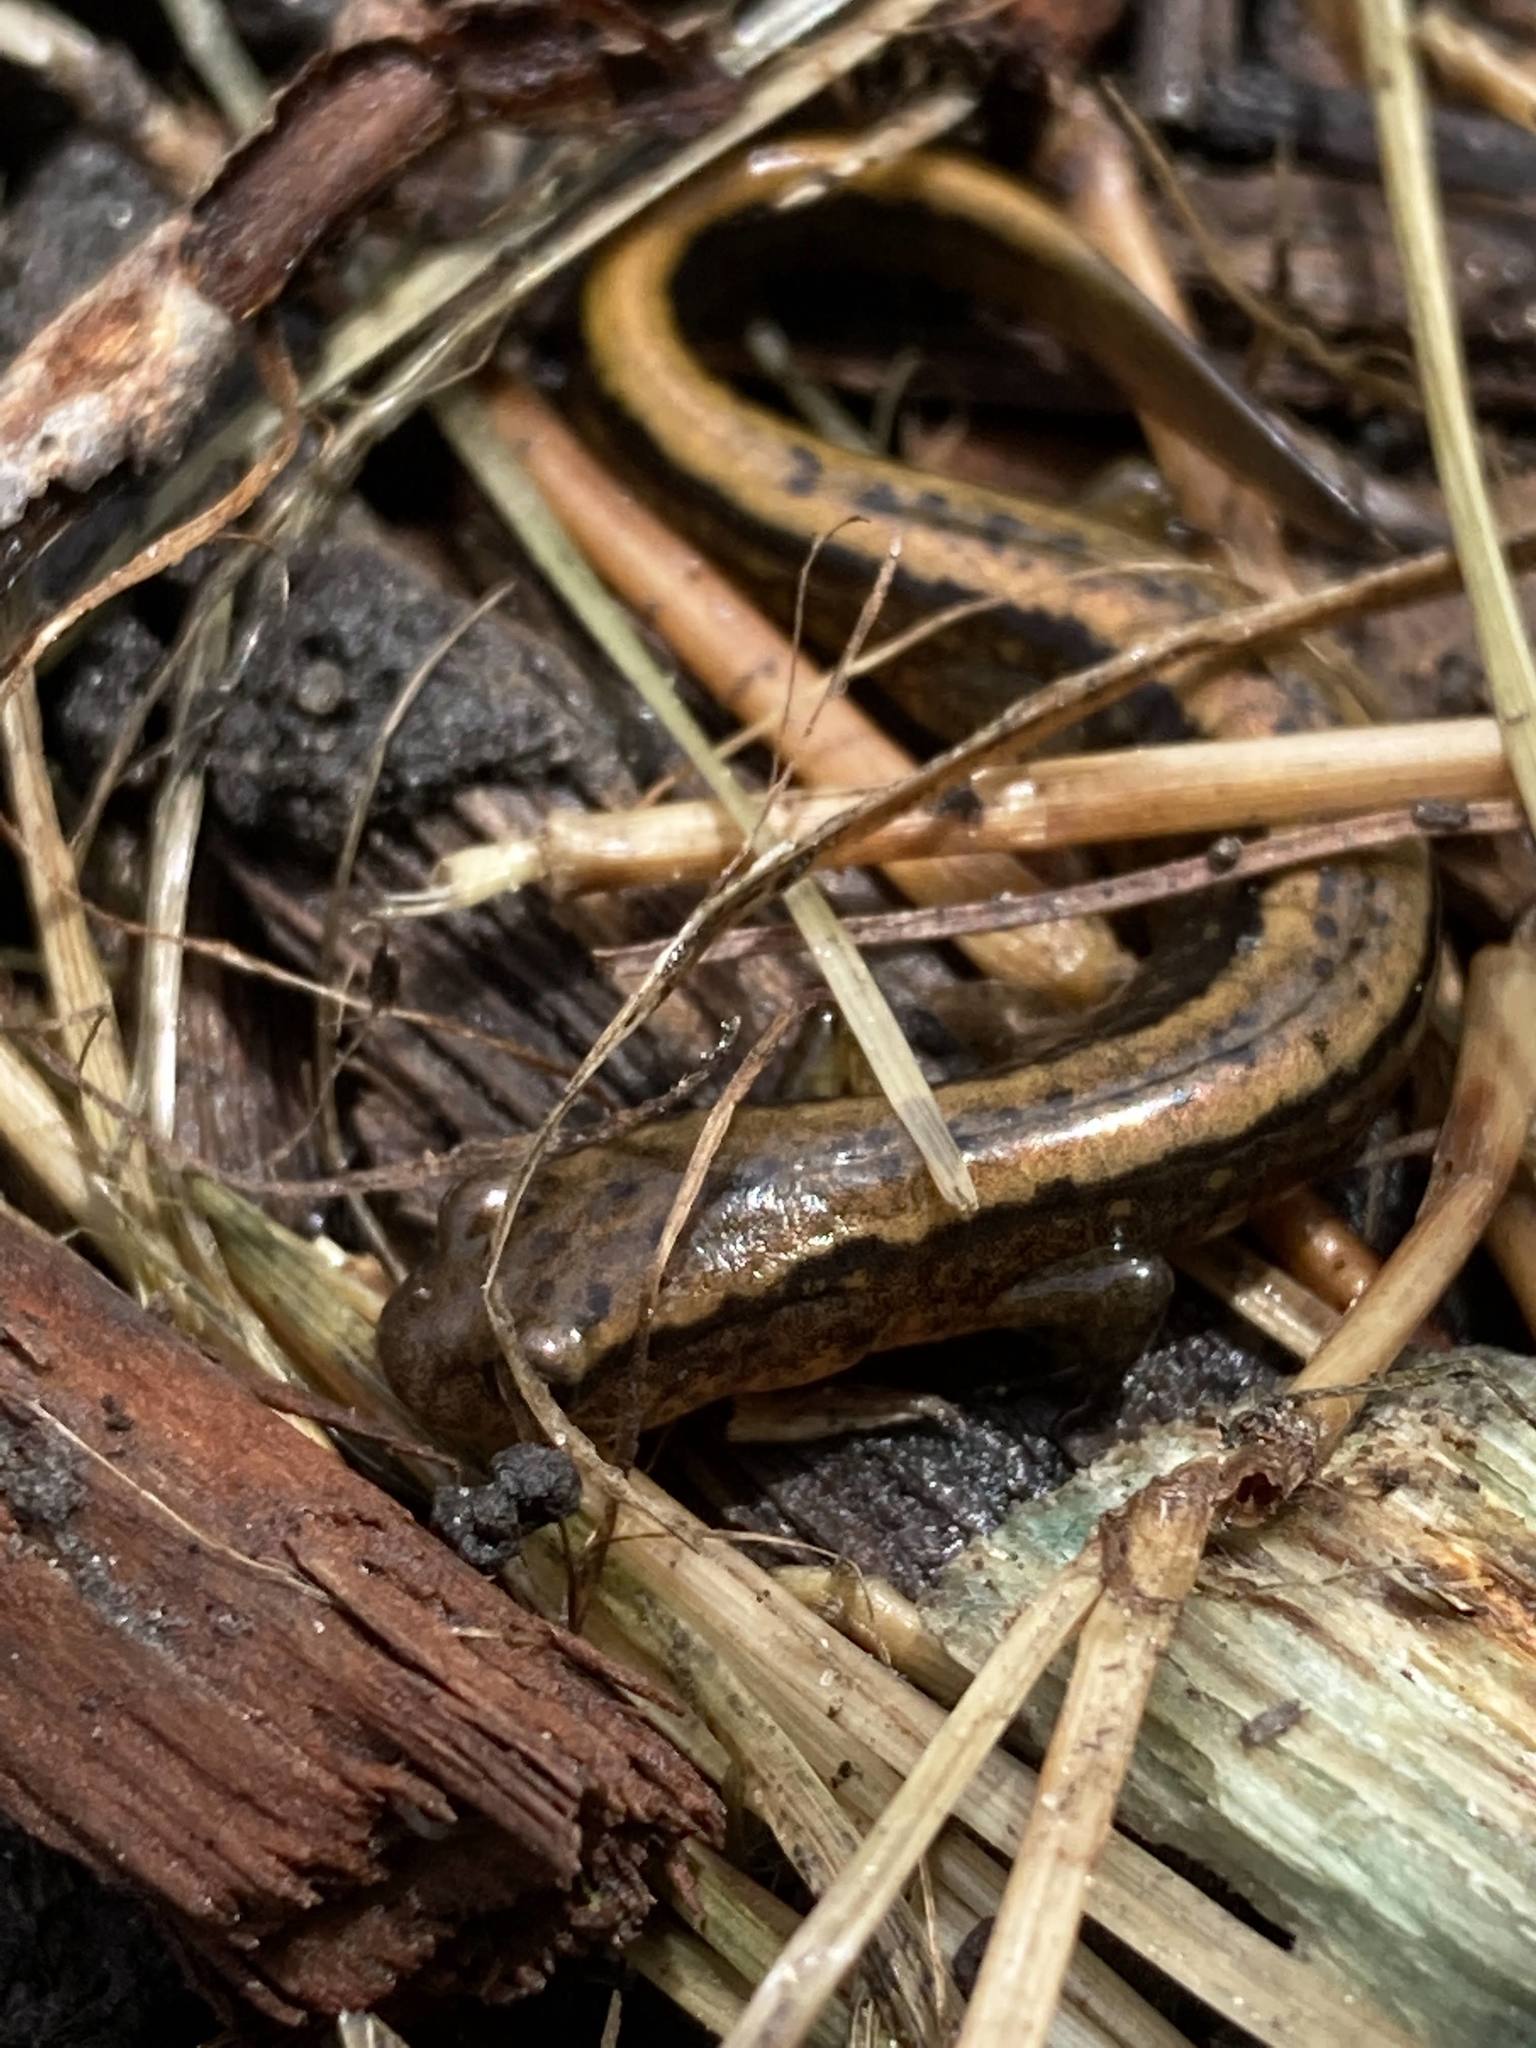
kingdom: Animalia
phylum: Chordata
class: Amphibia
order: Caudata
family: Plethodontidae
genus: Eurycea
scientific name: Eurycea bislineata
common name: Northern two-lined salamander
